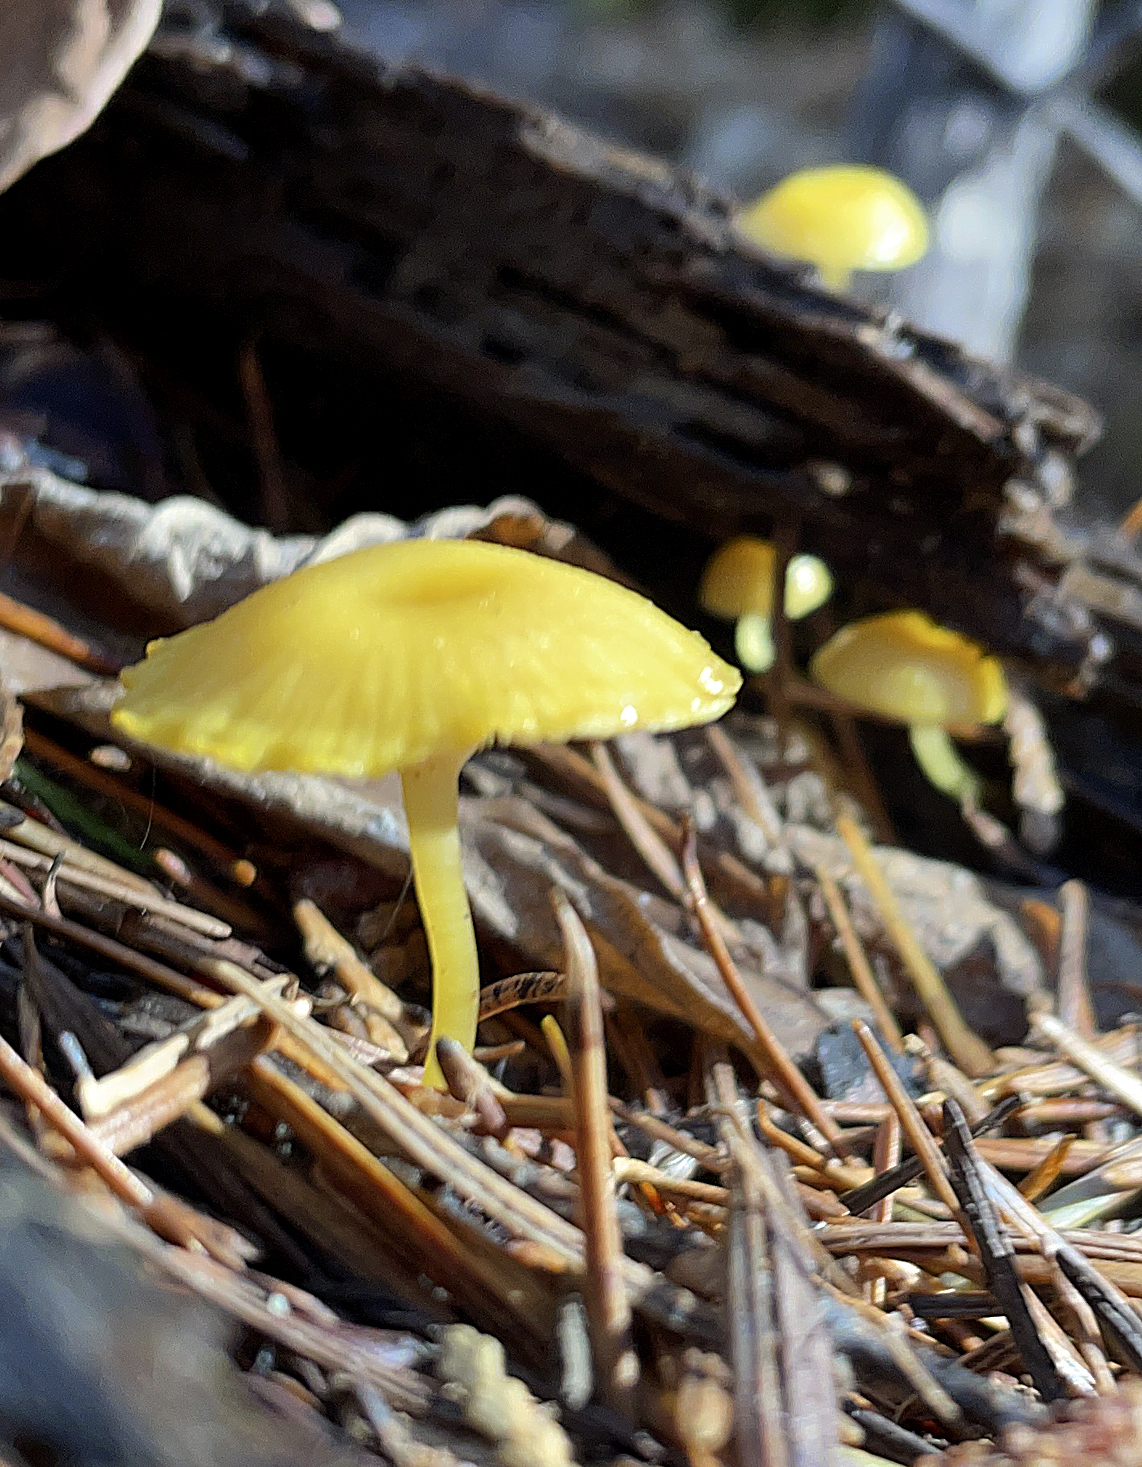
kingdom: Fungi
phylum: Basidiomycota
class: Agaricomycetes
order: Agaricales
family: Mycenaceae
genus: Mycena
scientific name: Mycena oregonensis
